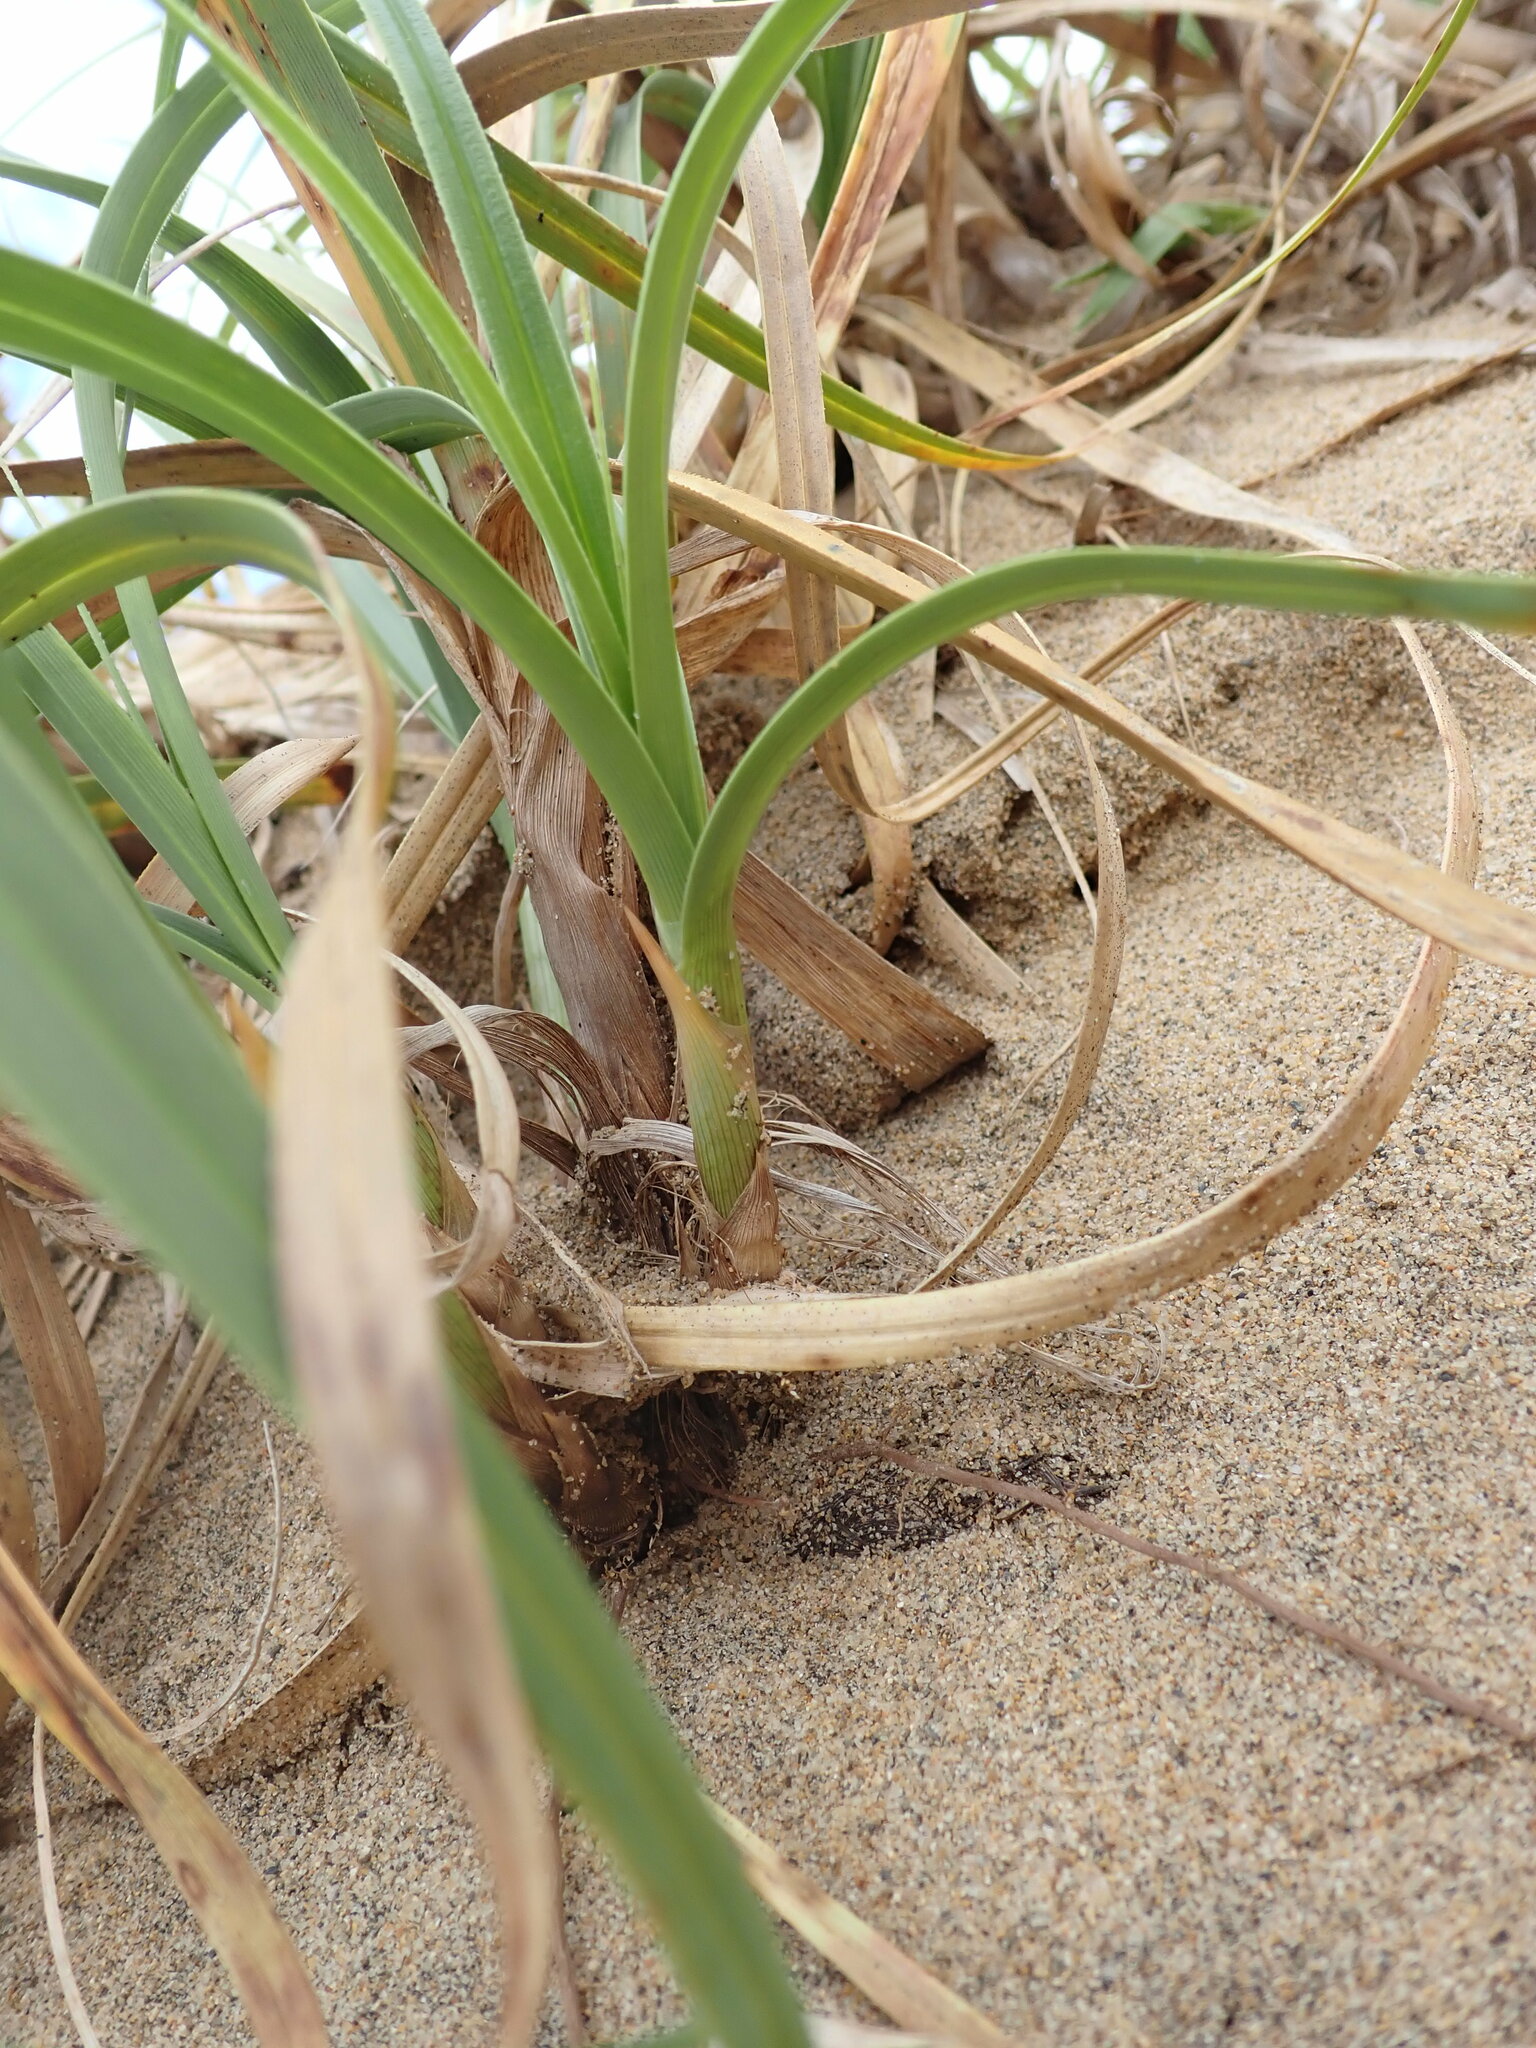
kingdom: Plantae
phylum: Tracheophyta
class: Liliopsida
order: Poales
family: Cyperaceae
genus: Carex
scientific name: Carex kobomugi
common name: Japanese sedge
